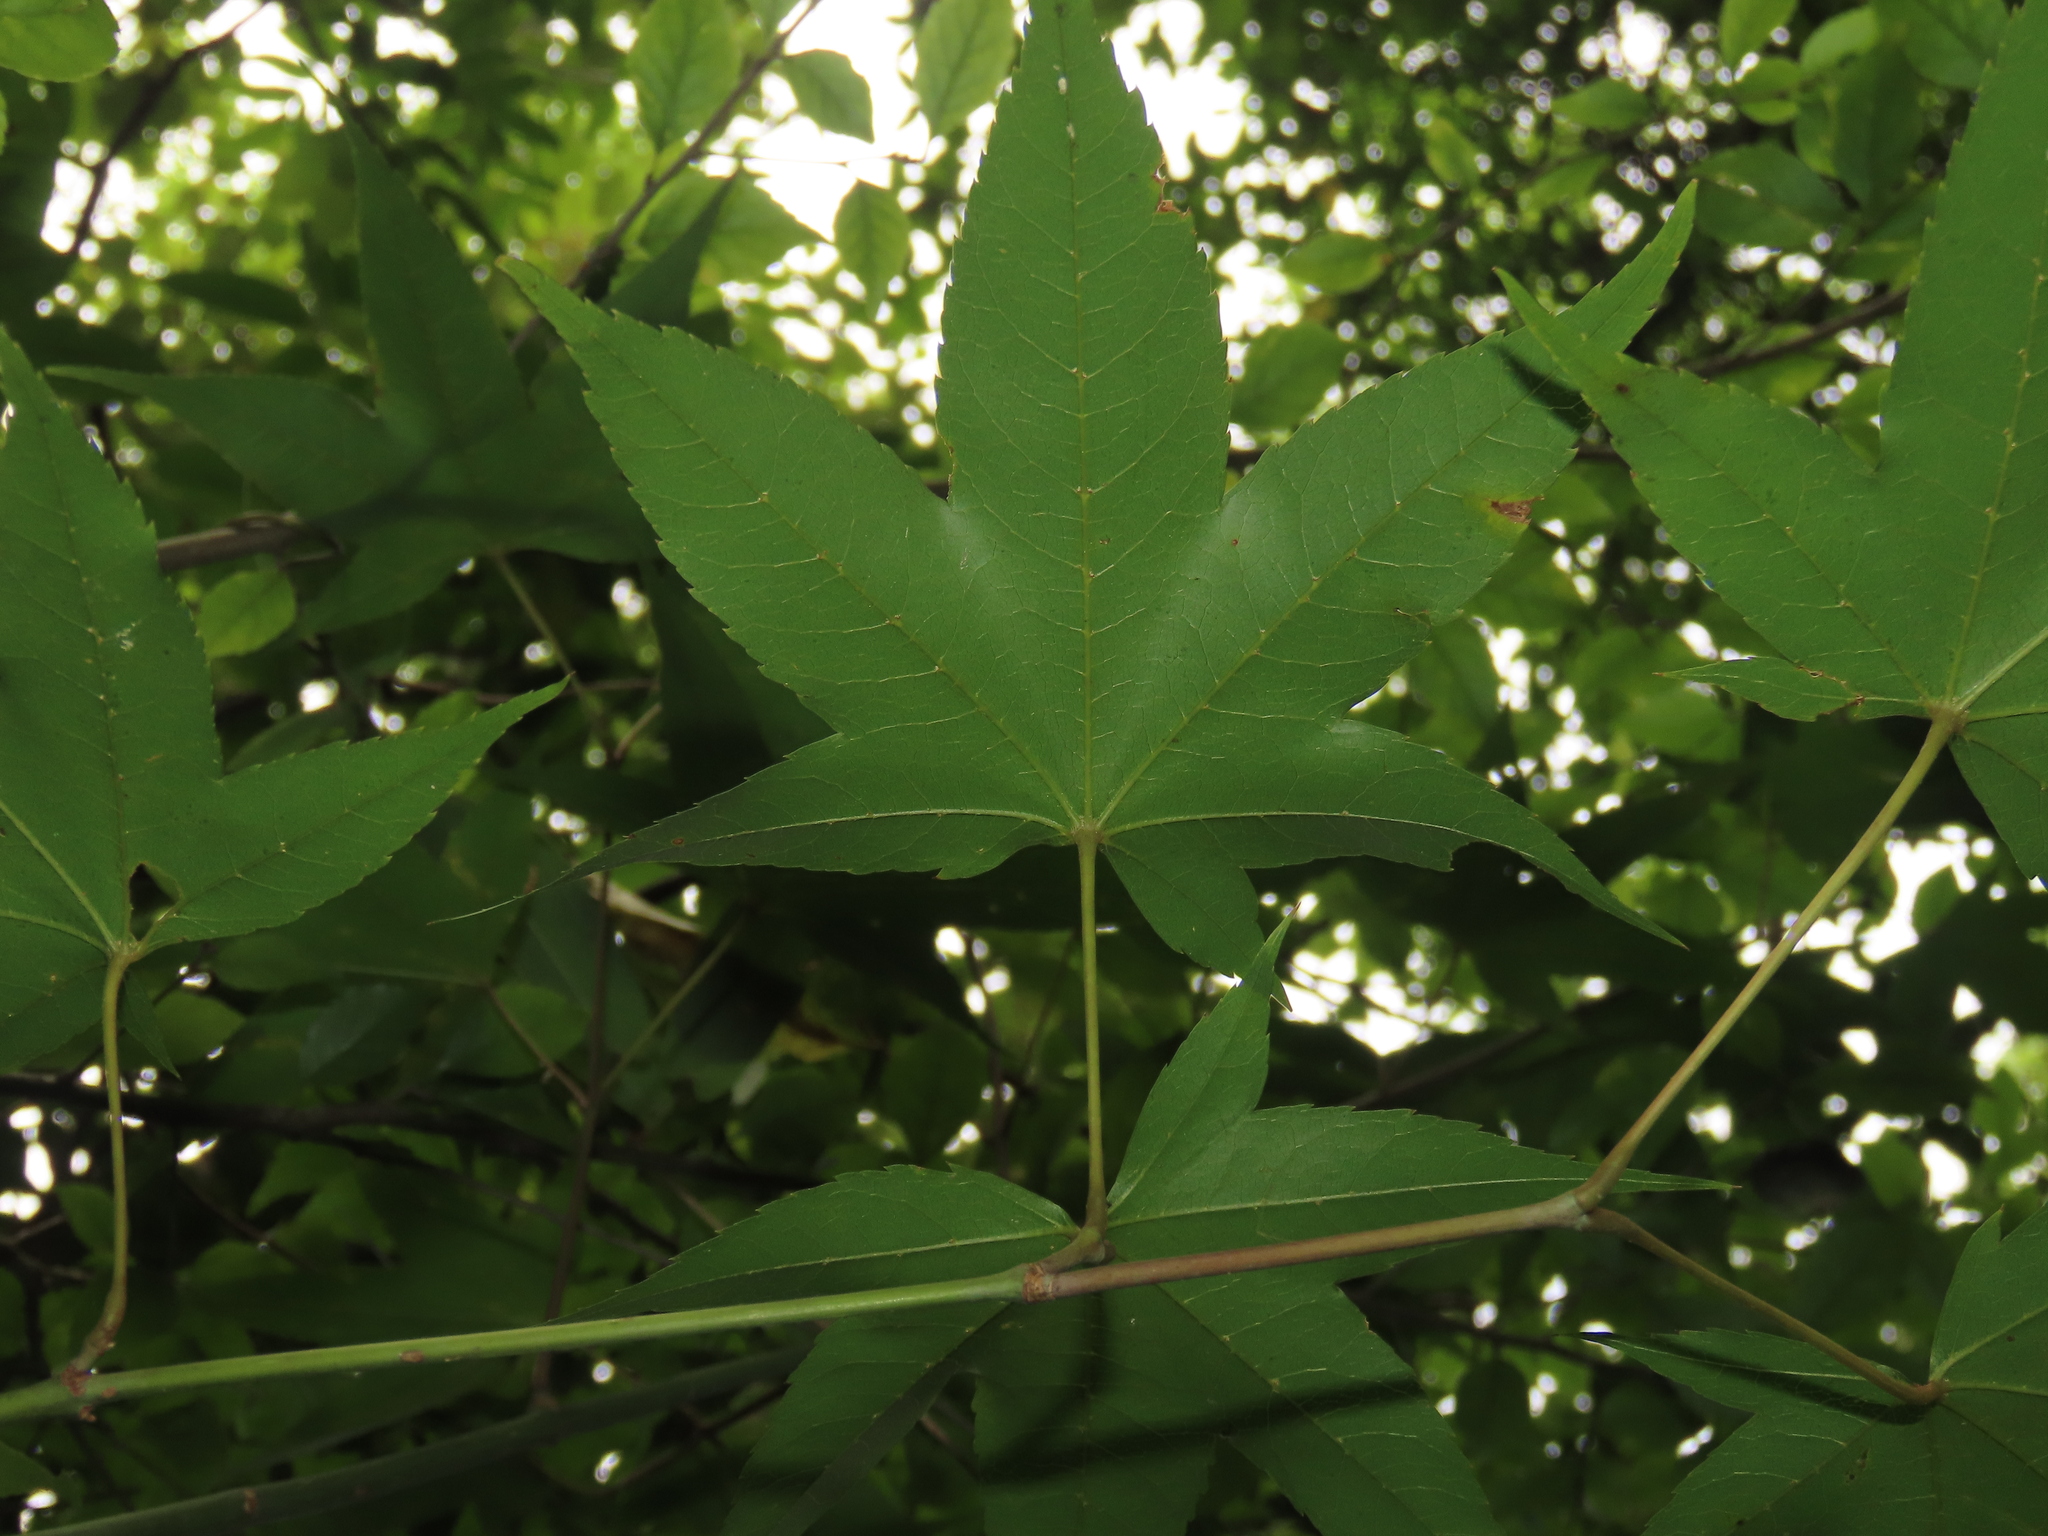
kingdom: Plantae
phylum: Tracheophyta
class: Magnoliopsida
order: Sapindales
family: Sapindaceae
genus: Acer
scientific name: Acer serrulatum
